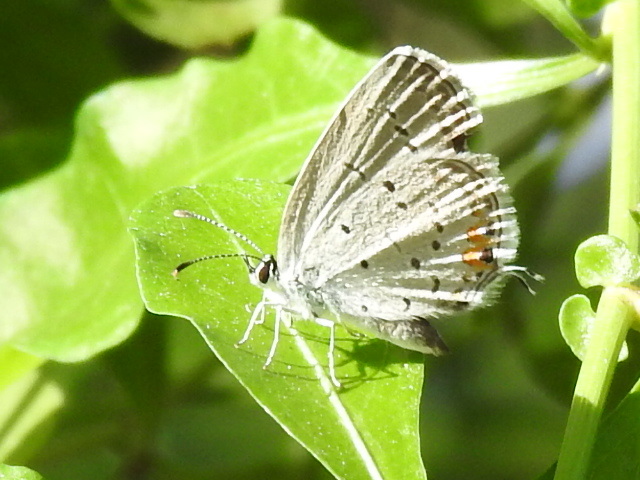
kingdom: Animalia
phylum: Arthropoda
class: Insecta
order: Lepidoptera
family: Lycaenidae
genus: Elkalyce
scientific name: Elkalyce comyntas
